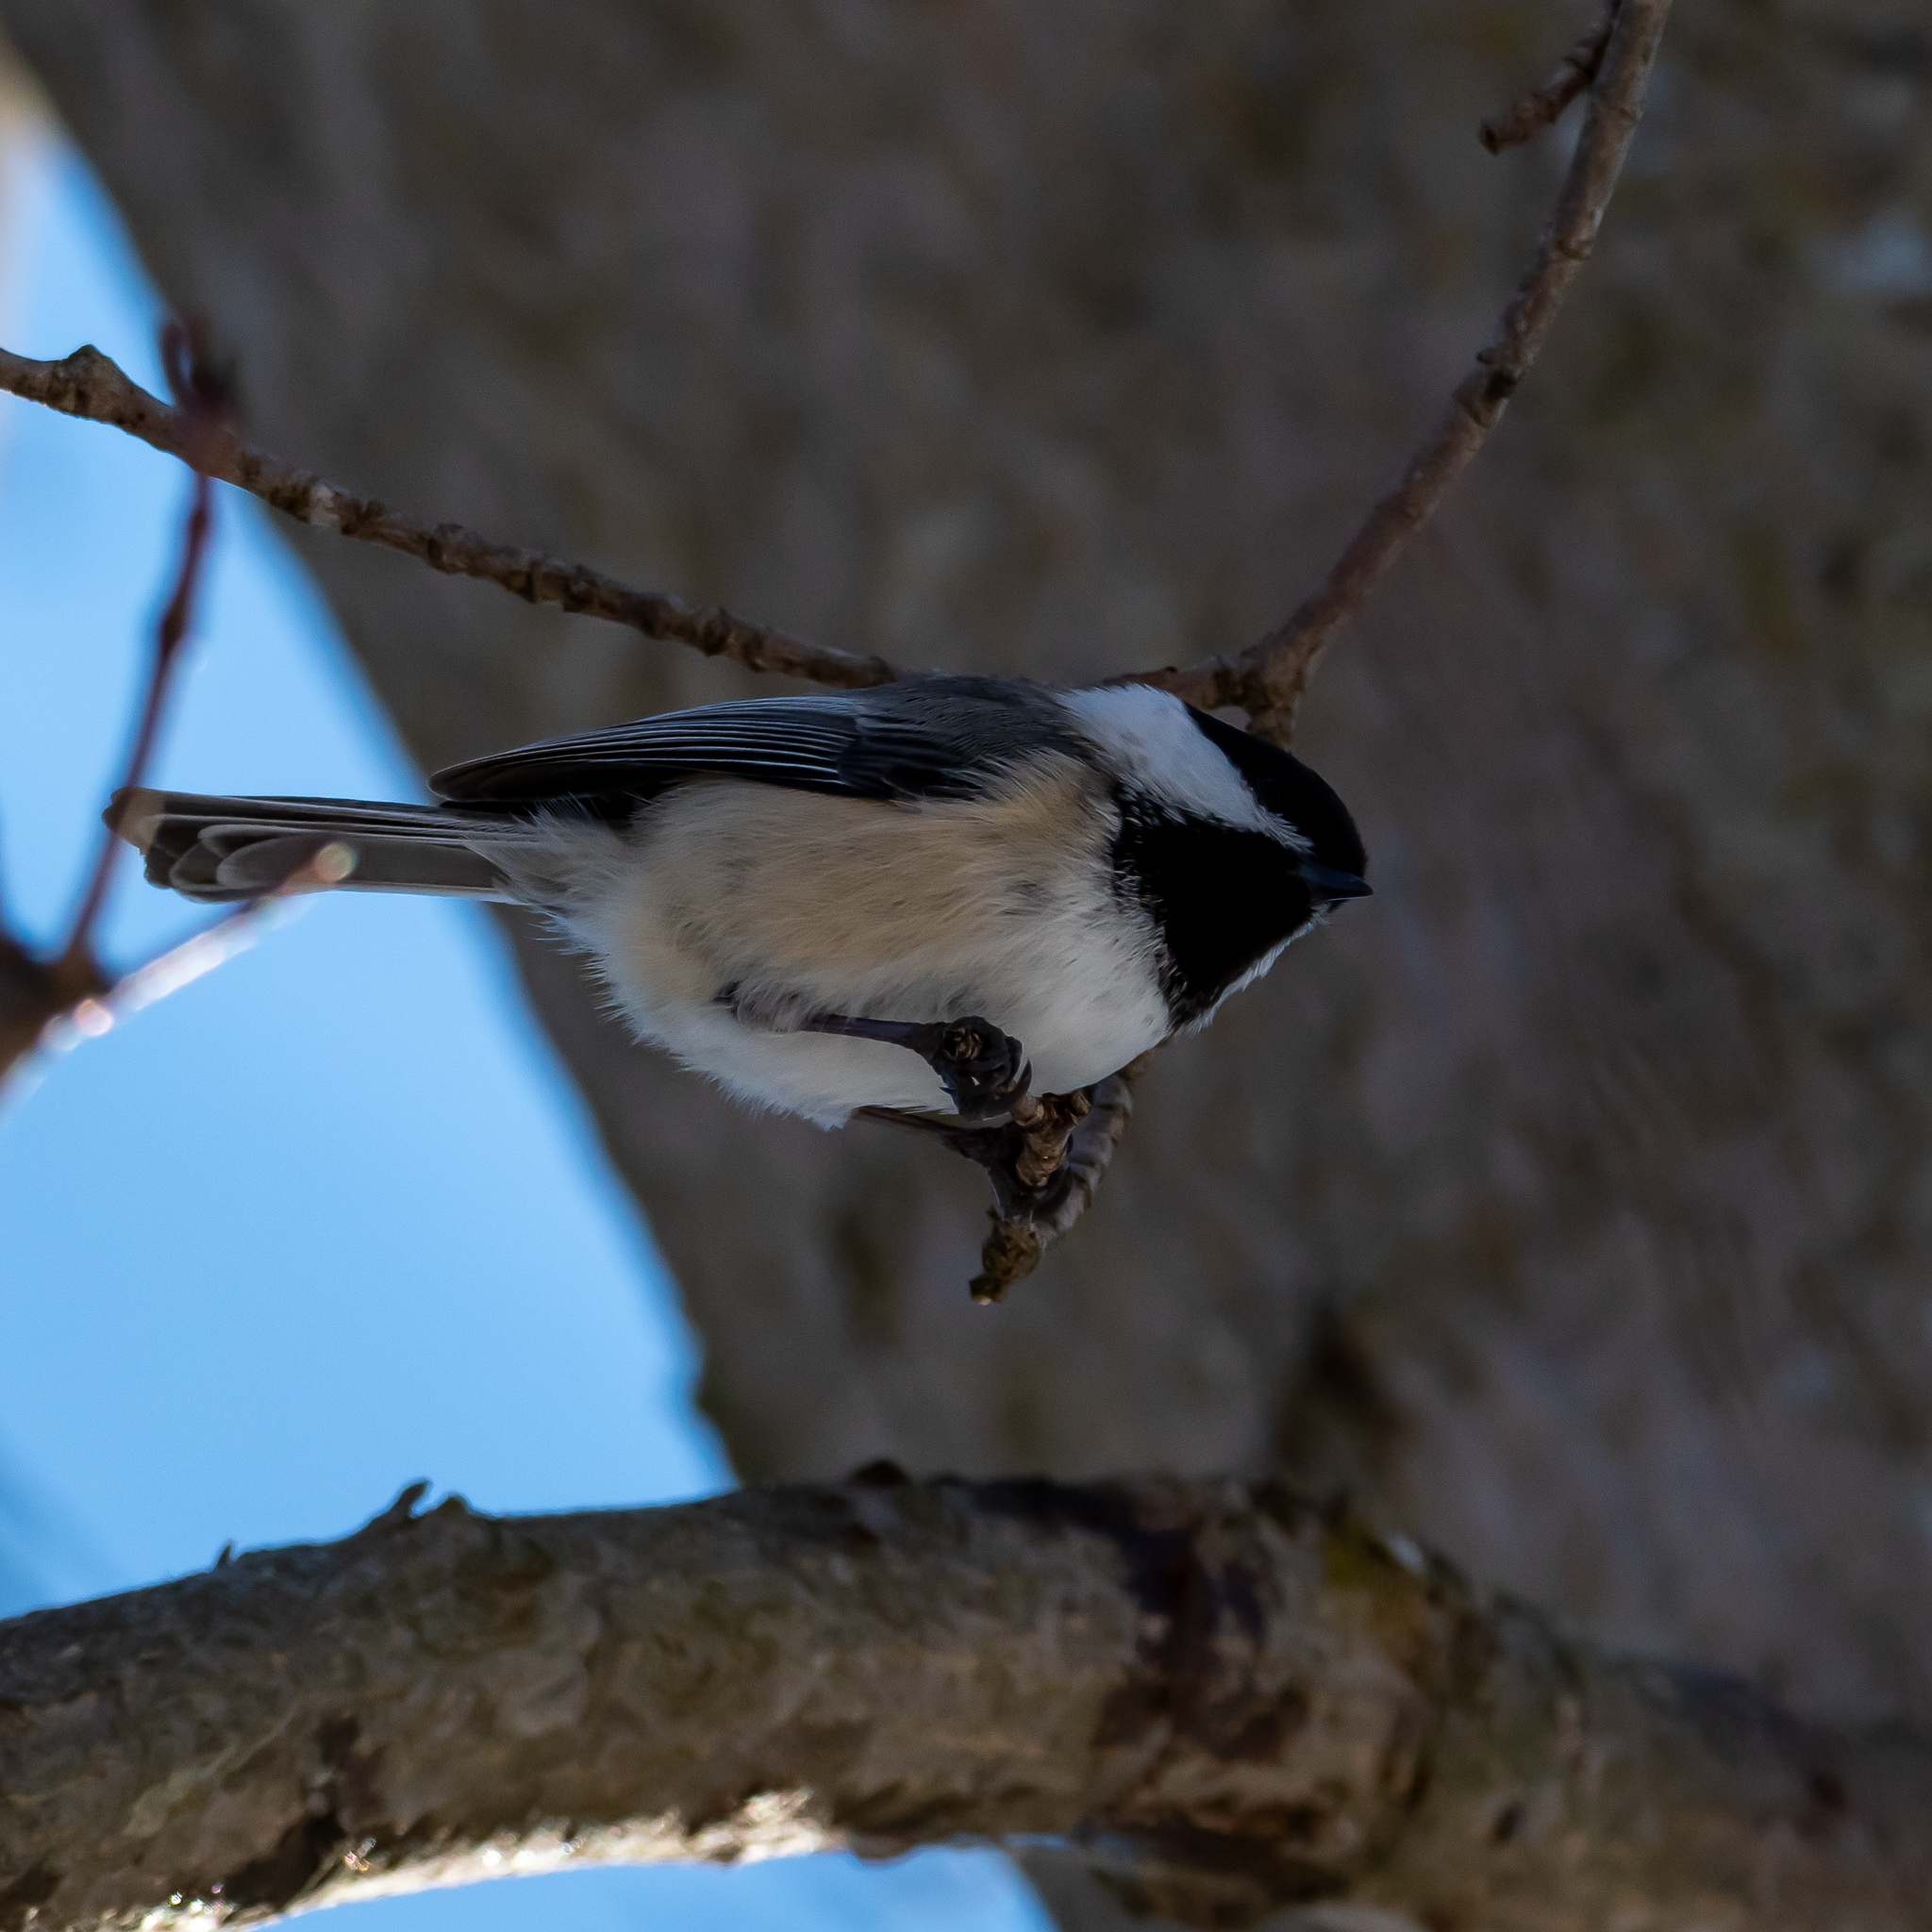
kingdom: Animalia
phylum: Chordata
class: Aves
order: Passeriformes
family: Paridae
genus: Poecile
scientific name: Poecile atricapillus
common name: Black-capped chickadee
